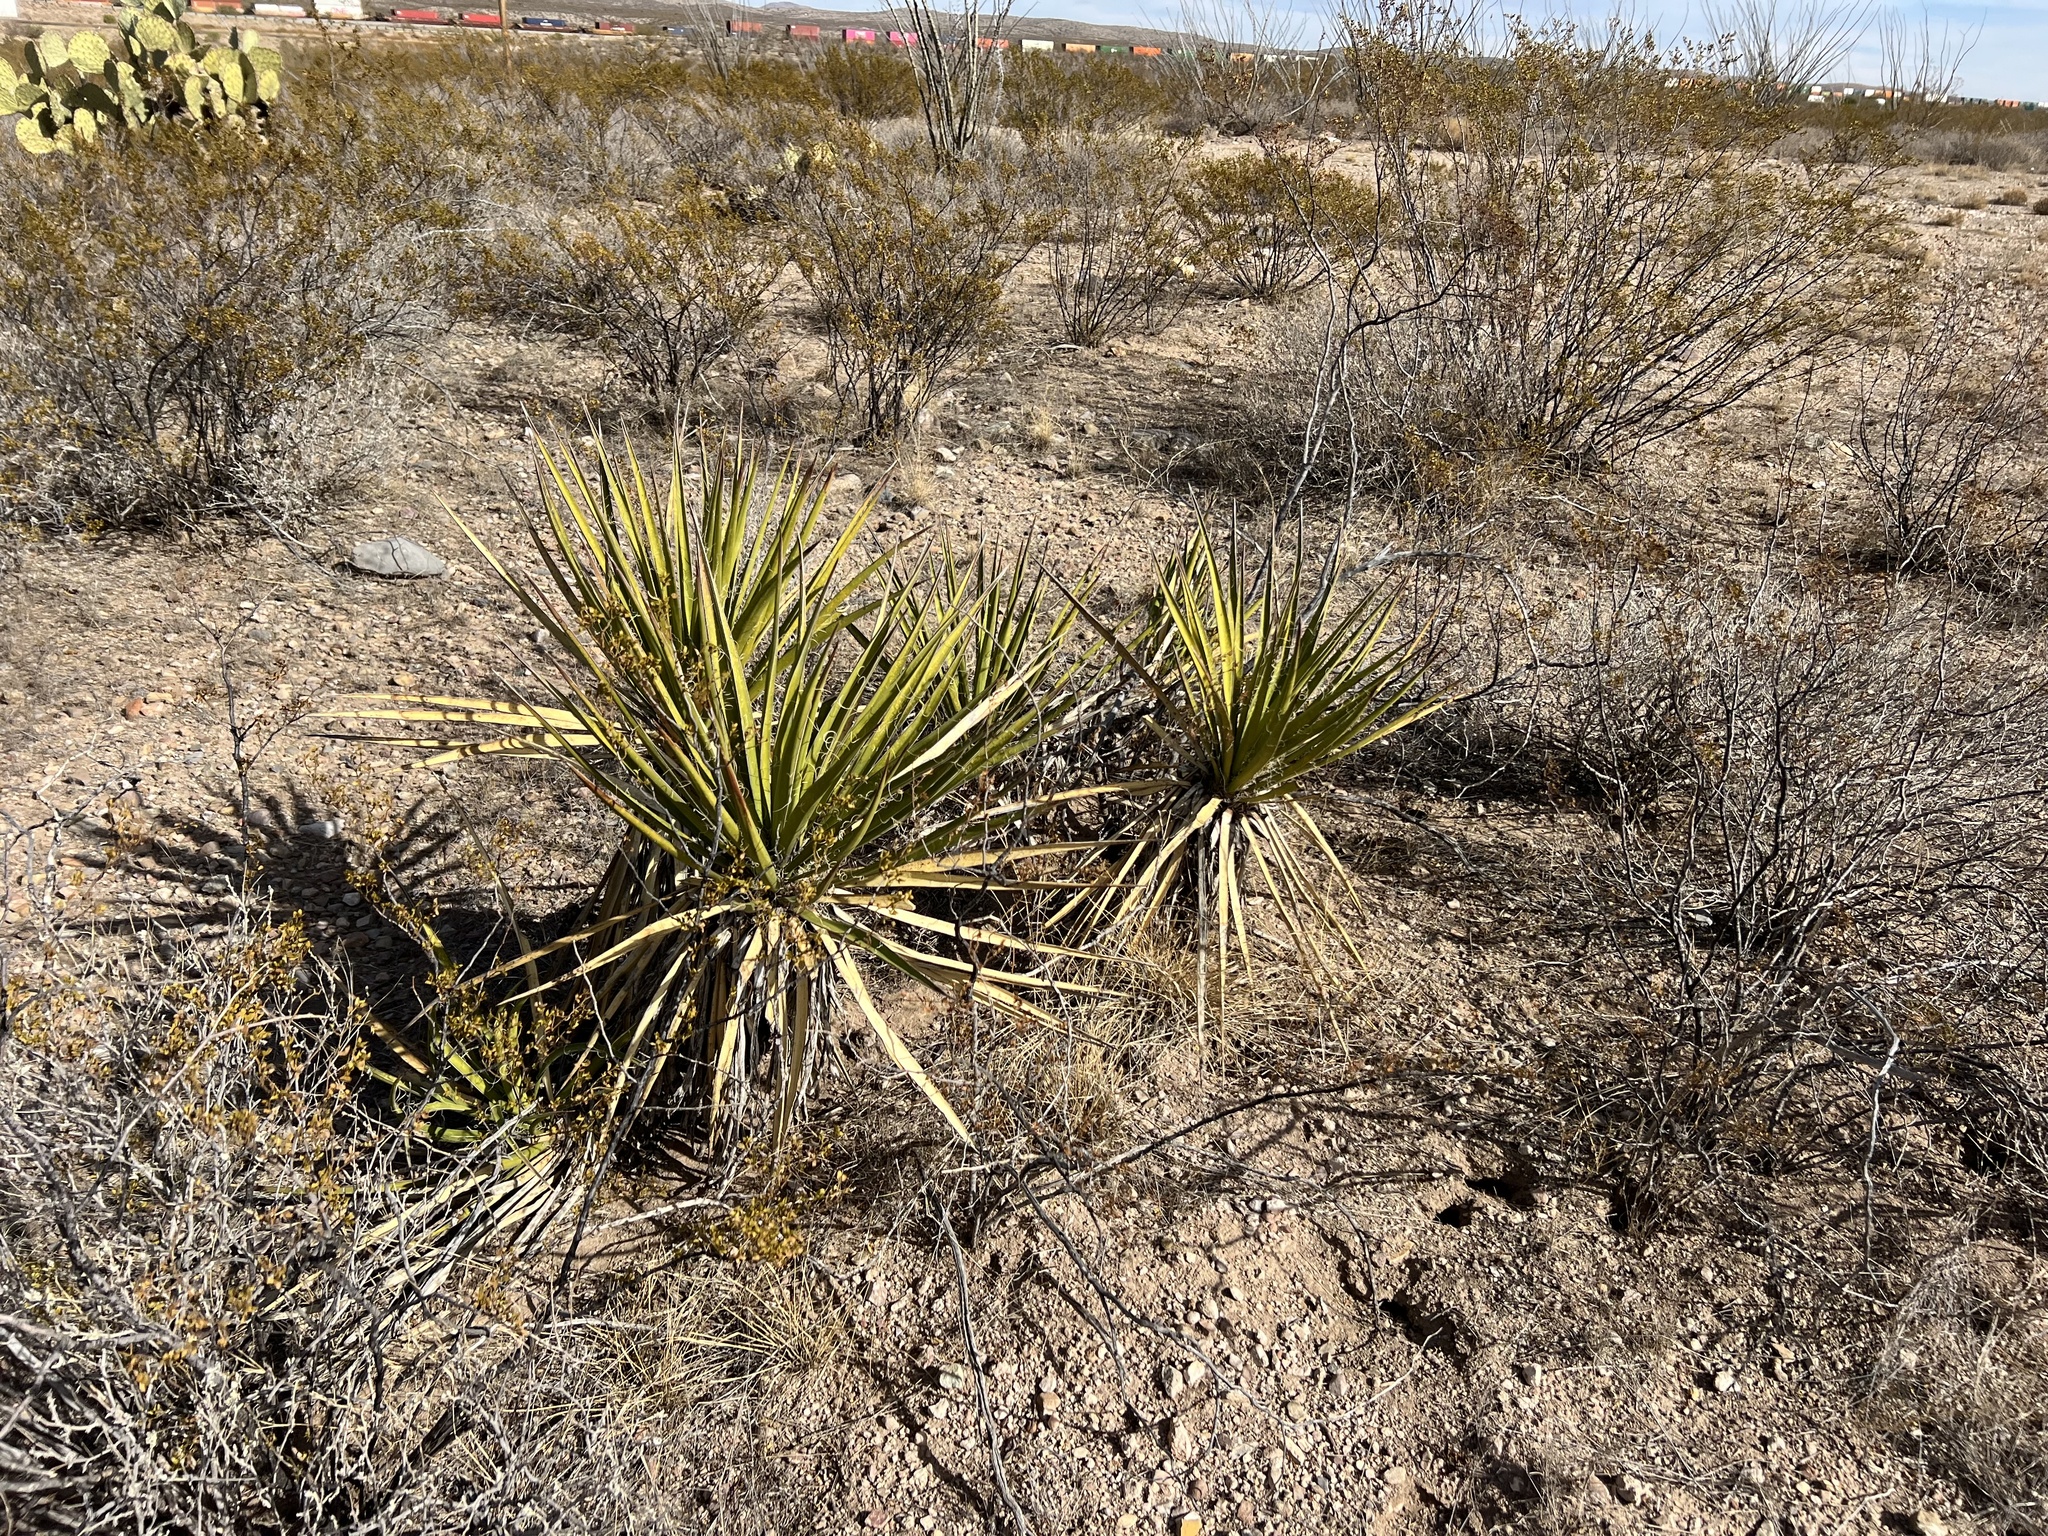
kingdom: Plantae
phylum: Tracheophyta
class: Liliopsida
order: Asparagales
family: Asparagaceae
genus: Yucca
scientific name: Yucca baccata
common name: Banana yucca
